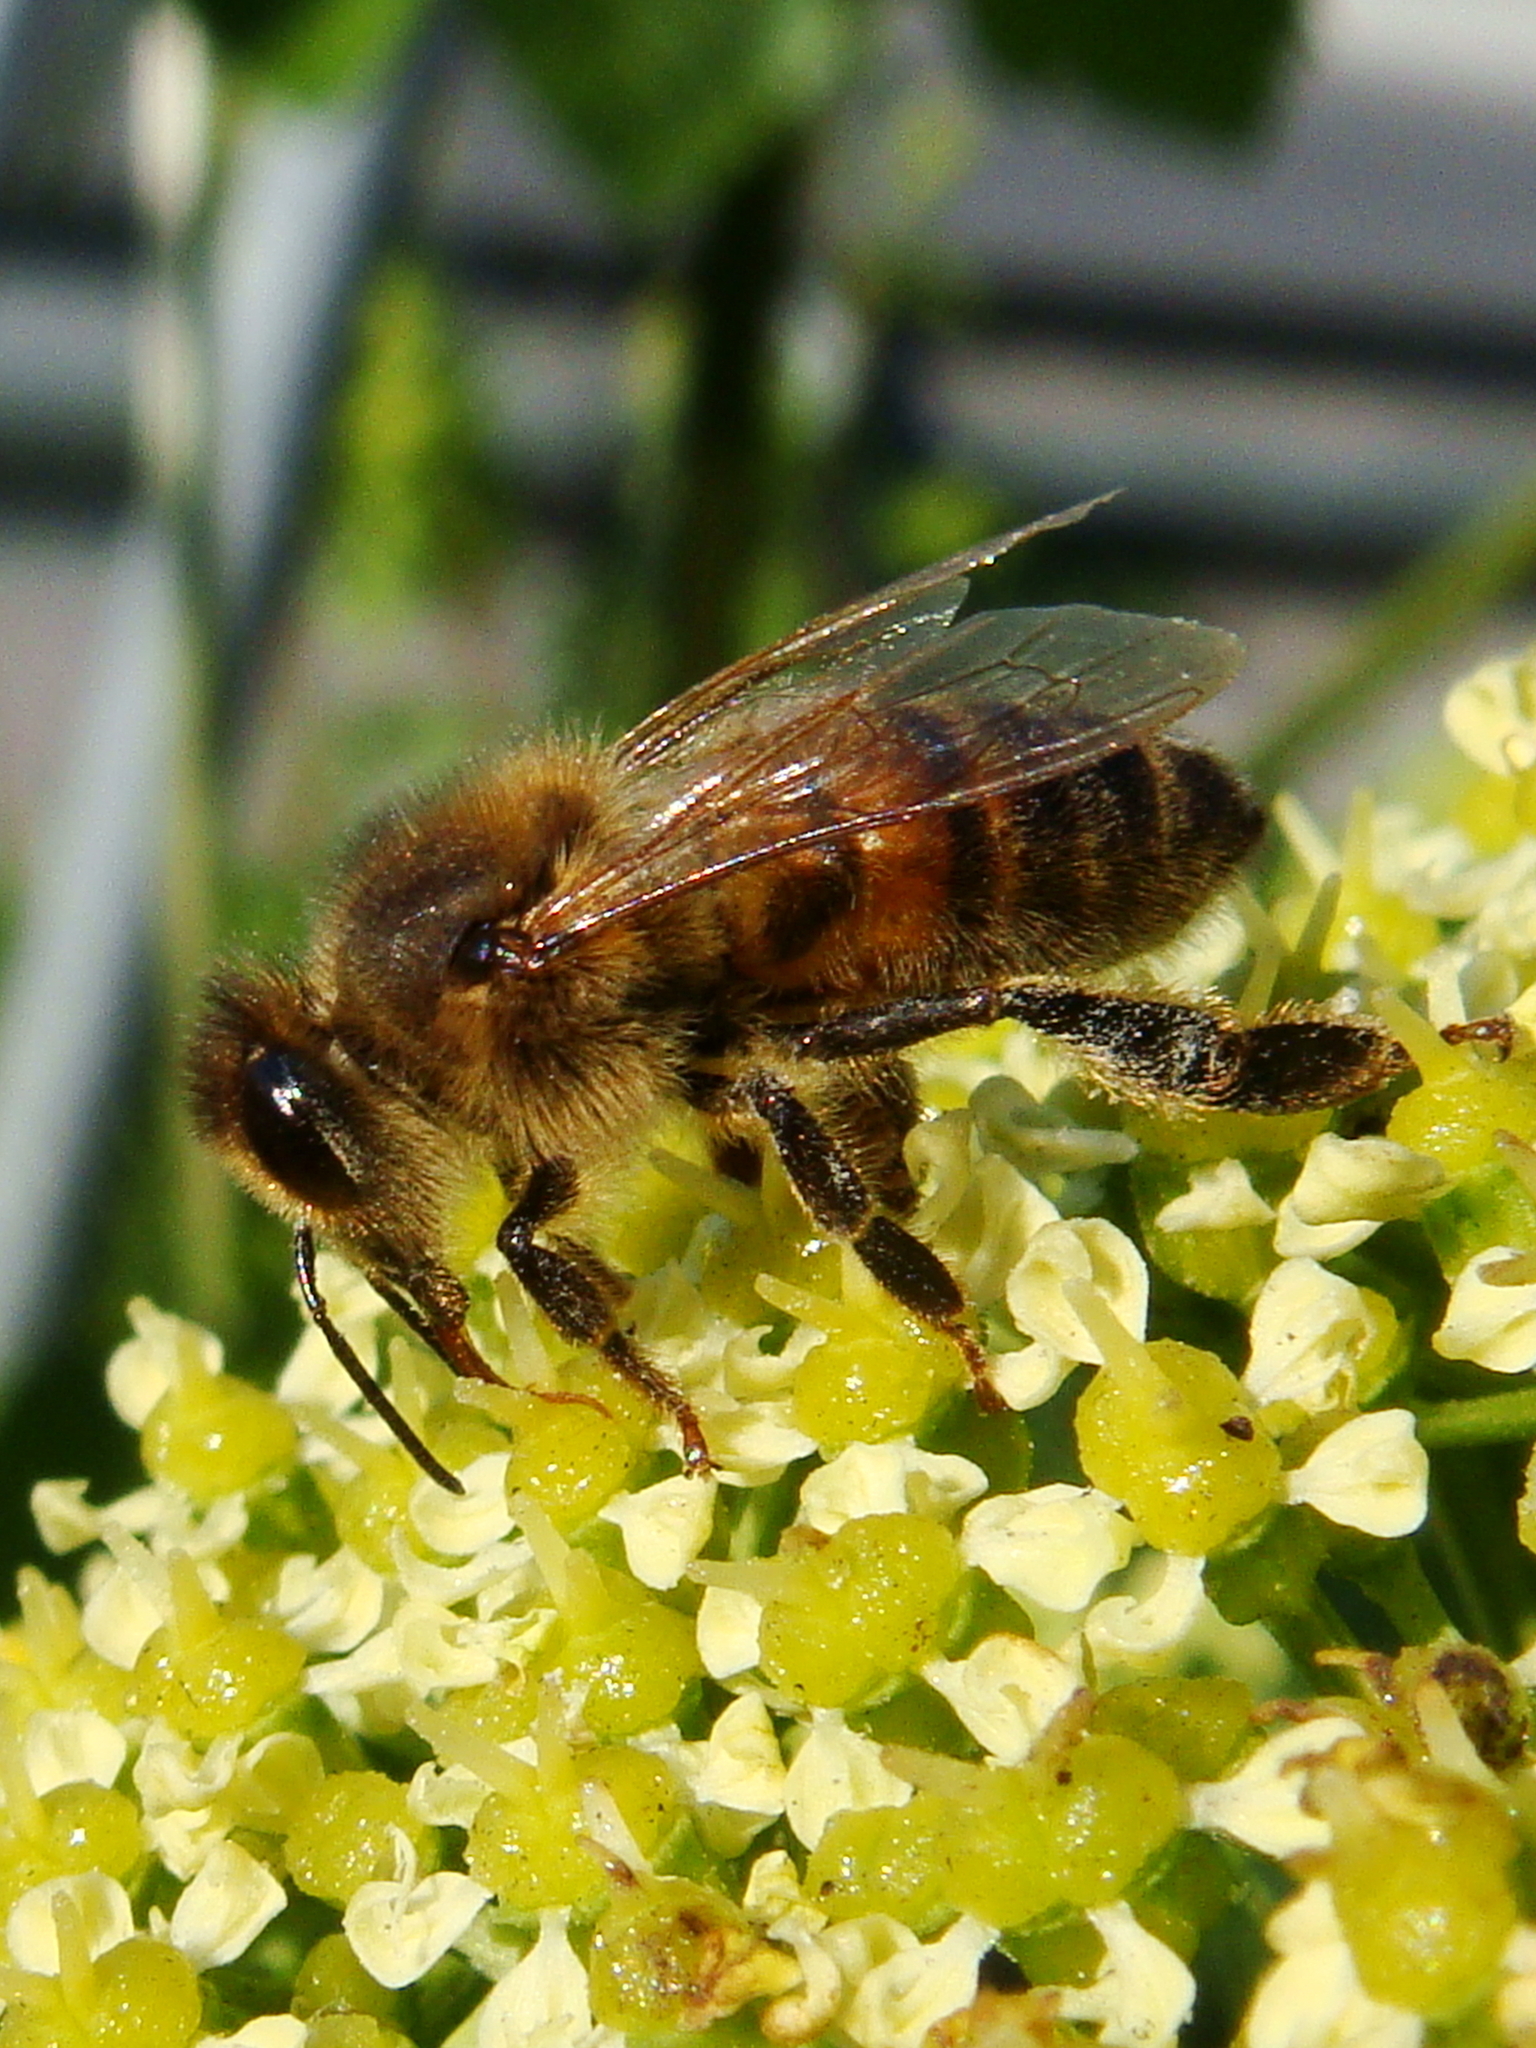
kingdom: Animalia
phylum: Arthropoda
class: Insecta
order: Hymenoptera
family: Apidae
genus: Apis
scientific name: Apis mellifera
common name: Honey bee
